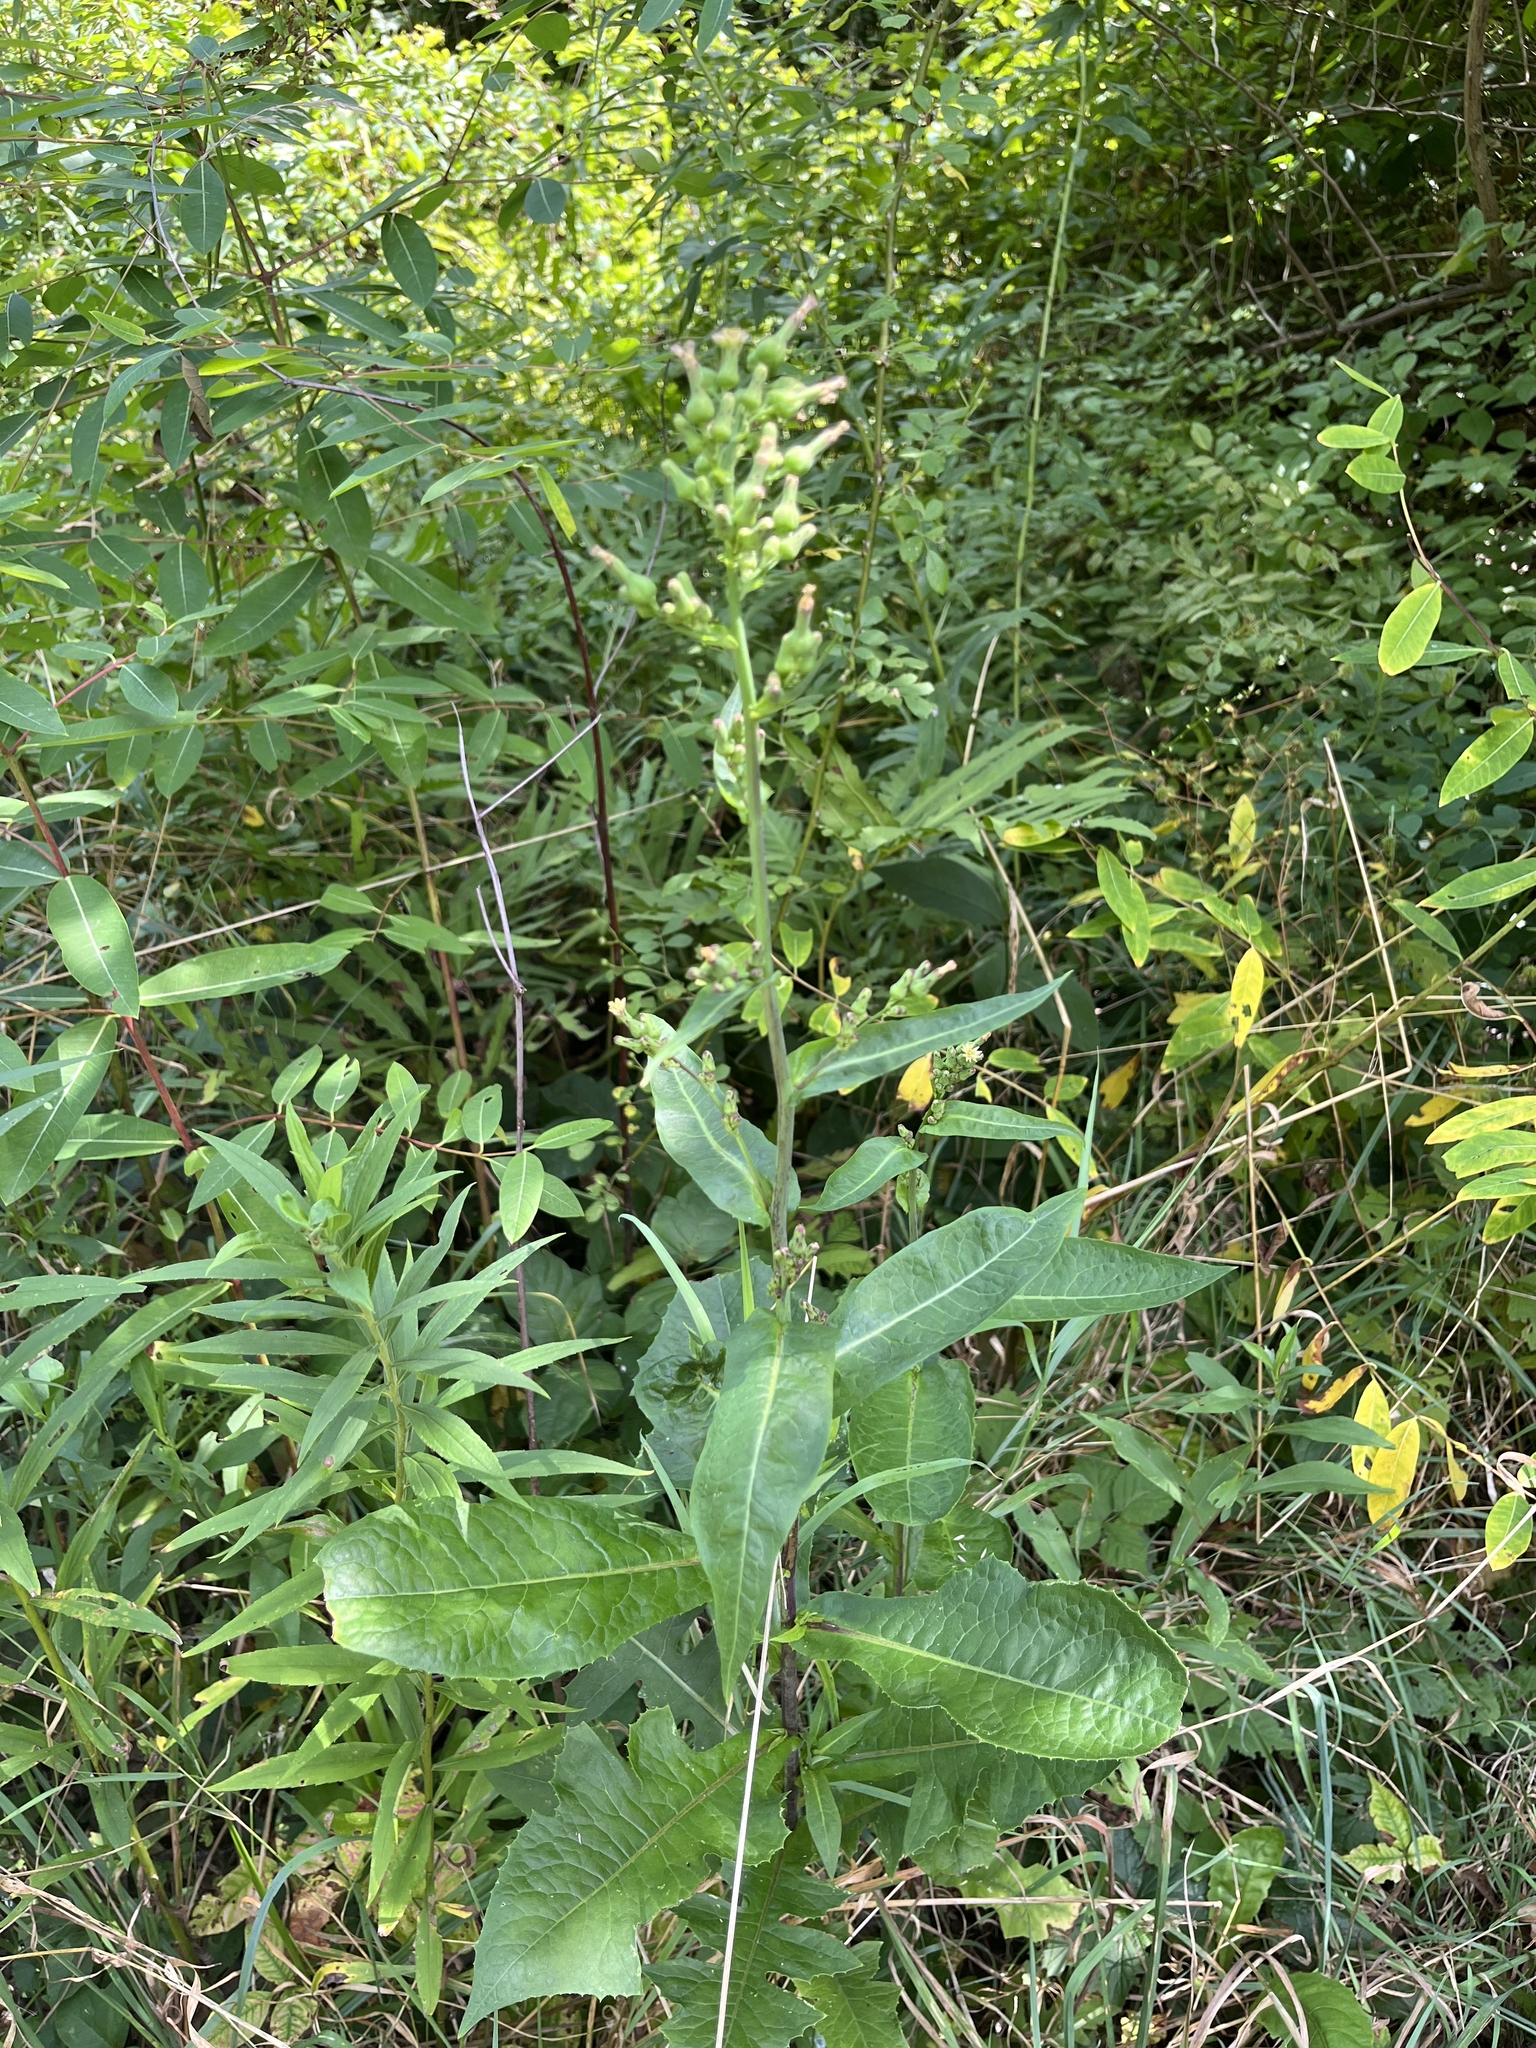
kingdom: Plantae
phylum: Tracheophyta
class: Magnoliopsida
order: Asterales
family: Asteraceae
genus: Lactuca
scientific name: Lactuca biennis
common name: Blue wood lettuce
